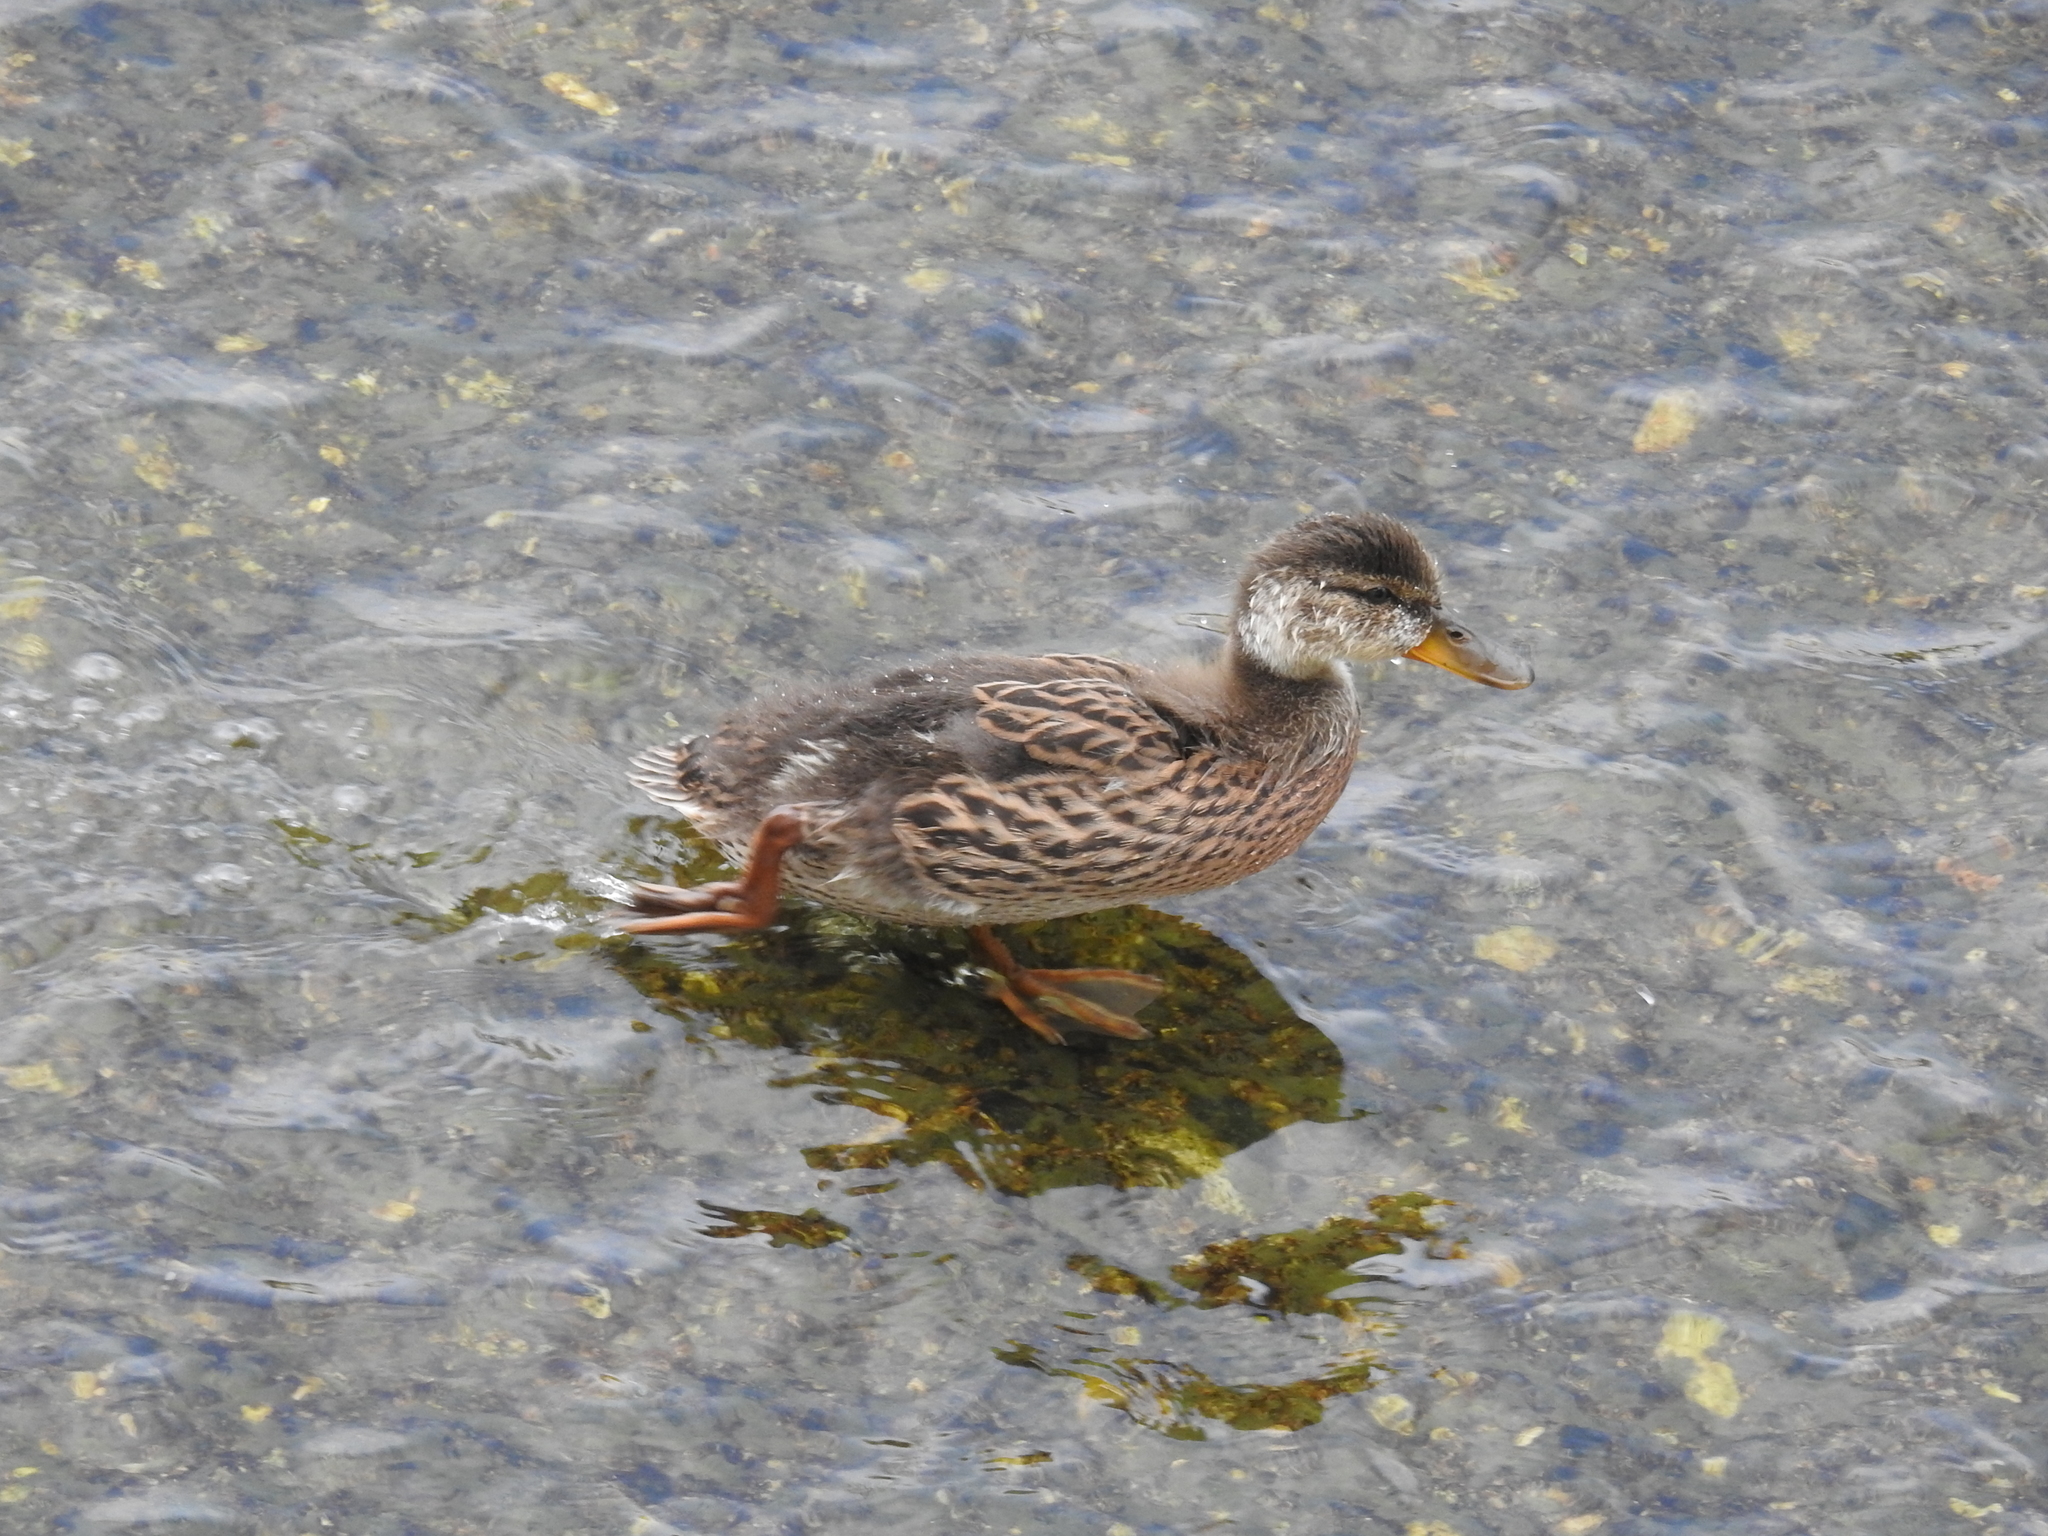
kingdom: Animalia
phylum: Chordata
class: Aves
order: Anseriformes
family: Anatidae
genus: Anas
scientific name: Anas platyrhynchos
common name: Mallard
